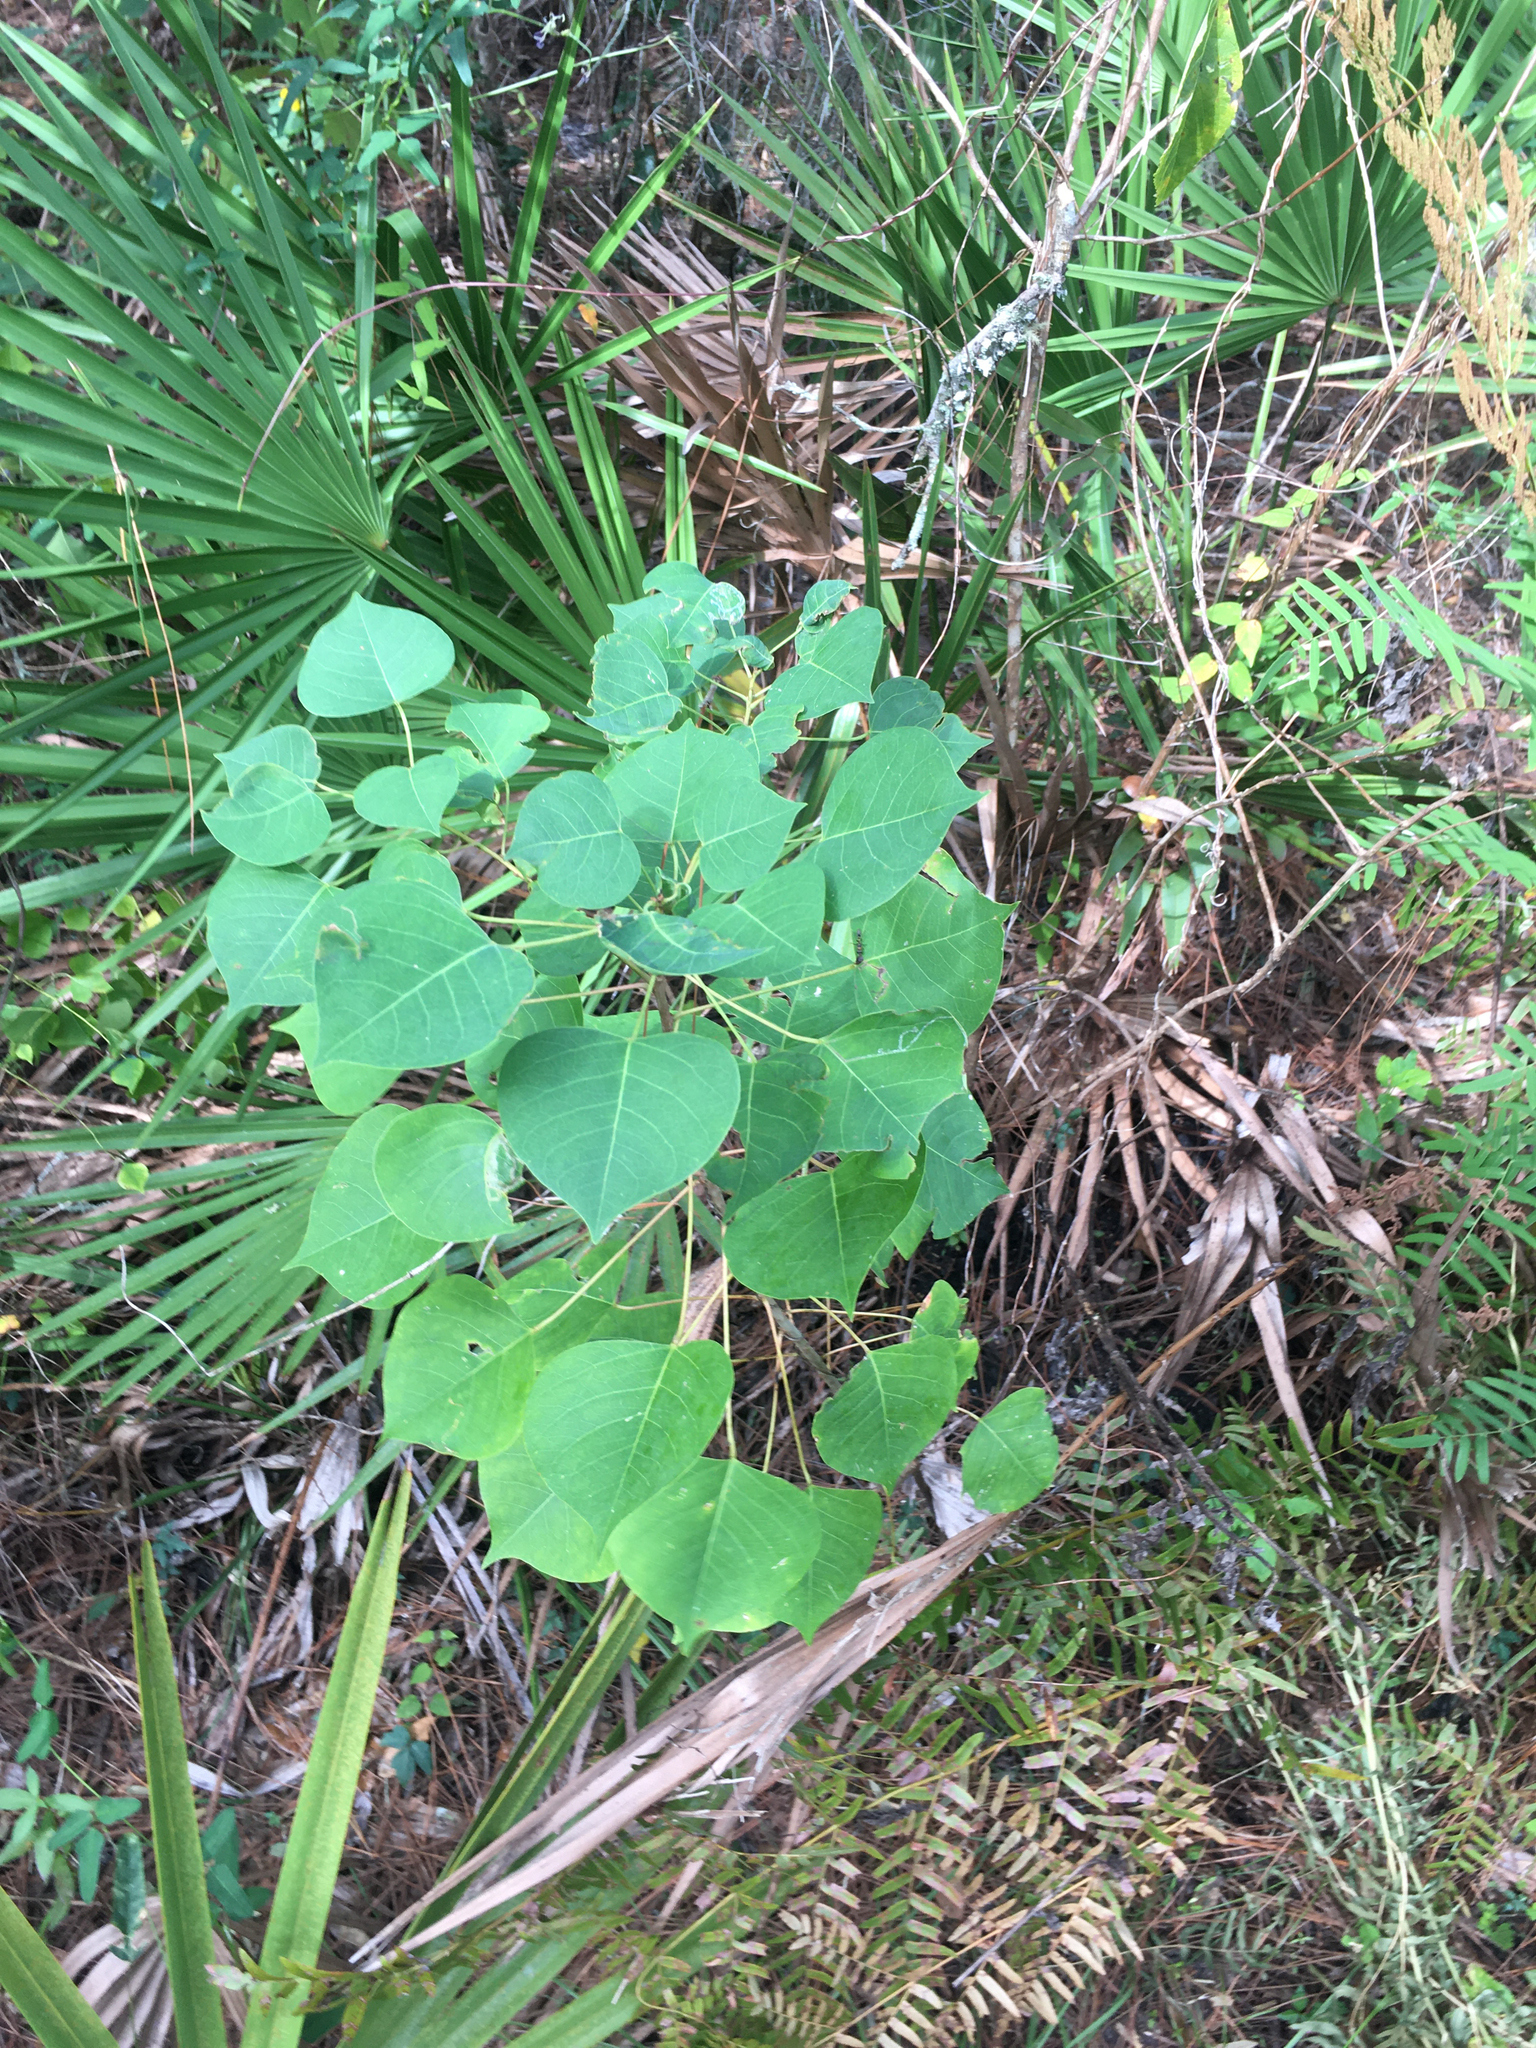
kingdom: Plantae
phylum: Tracheophyta
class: Magnoliopsida
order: Malpighiales
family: Euphorbiaceae
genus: Triadica
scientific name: Triadica sebifera
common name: Chinese tallow
